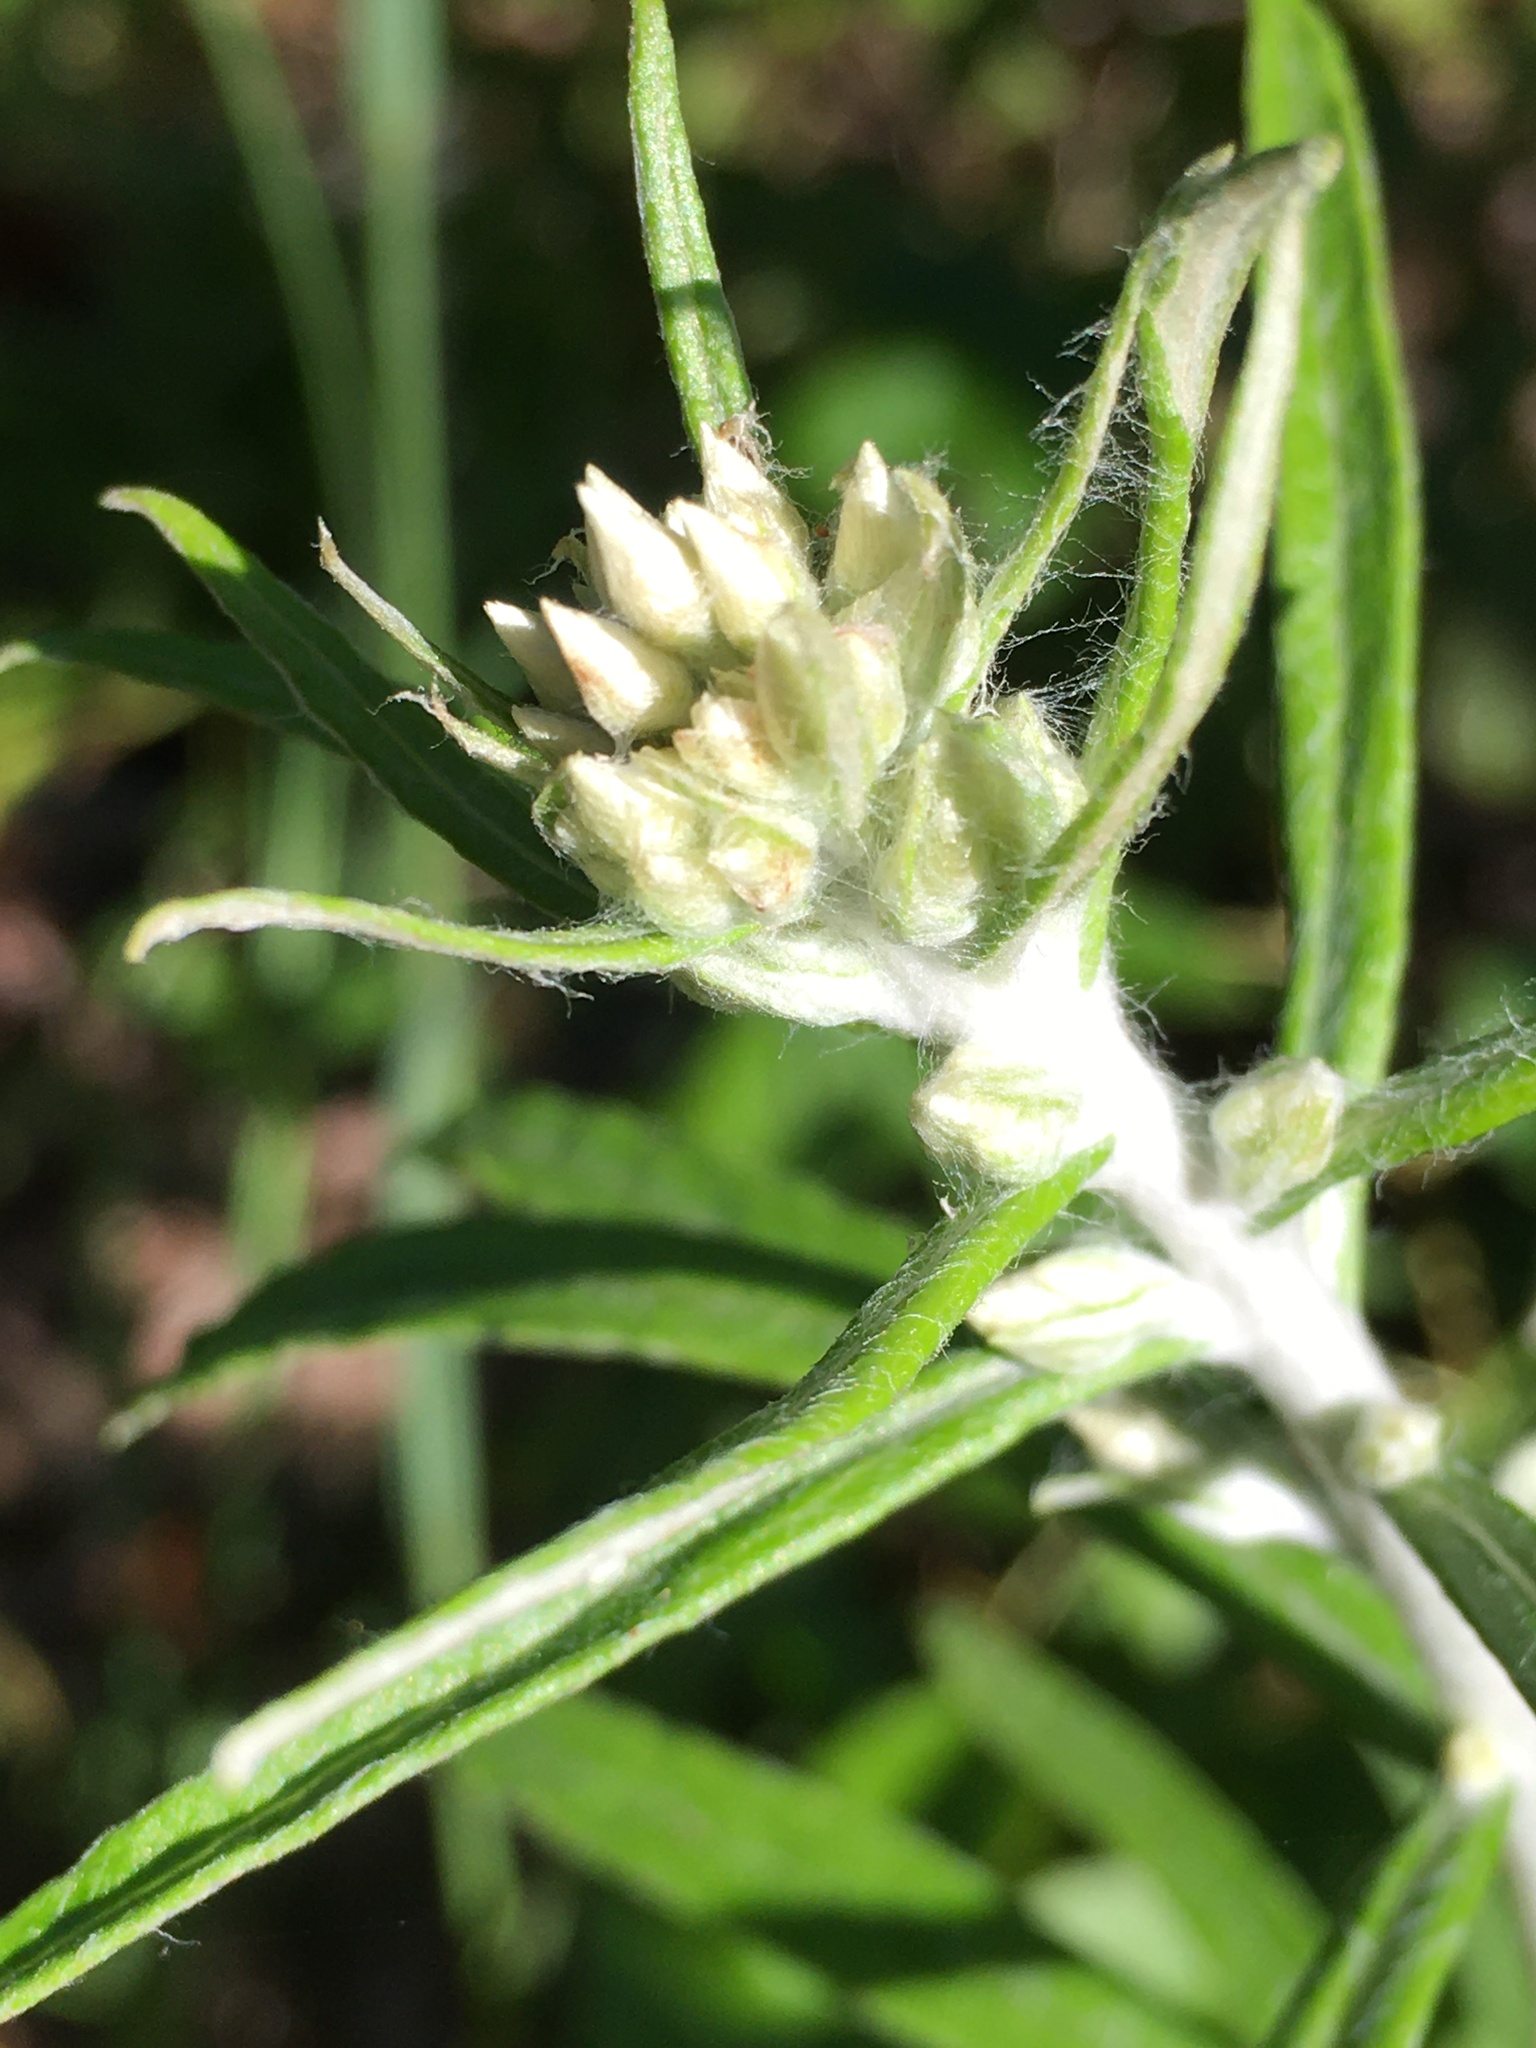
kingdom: Plantae
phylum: Tracheophyta
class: Magnoliopsida
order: Asterales
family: Asteraceae
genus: Pseudognaphalium
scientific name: Pseudognaphalium obtusifolium
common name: Eastern rabbit-tobacco
